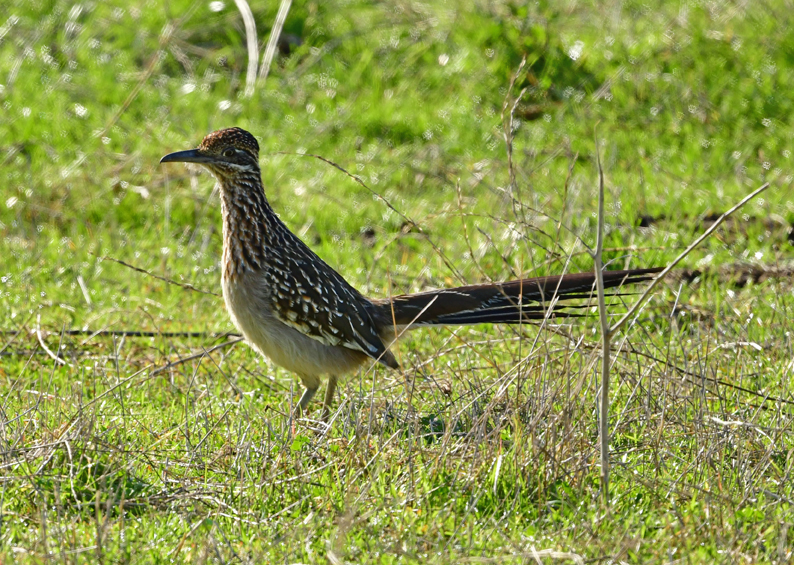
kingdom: Animalia
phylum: Chordata
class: Aves
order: Cuculiformes
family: Cuculidae
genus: Geococcyx
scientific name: Geococcyx californianus
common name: Greater roadrunner
